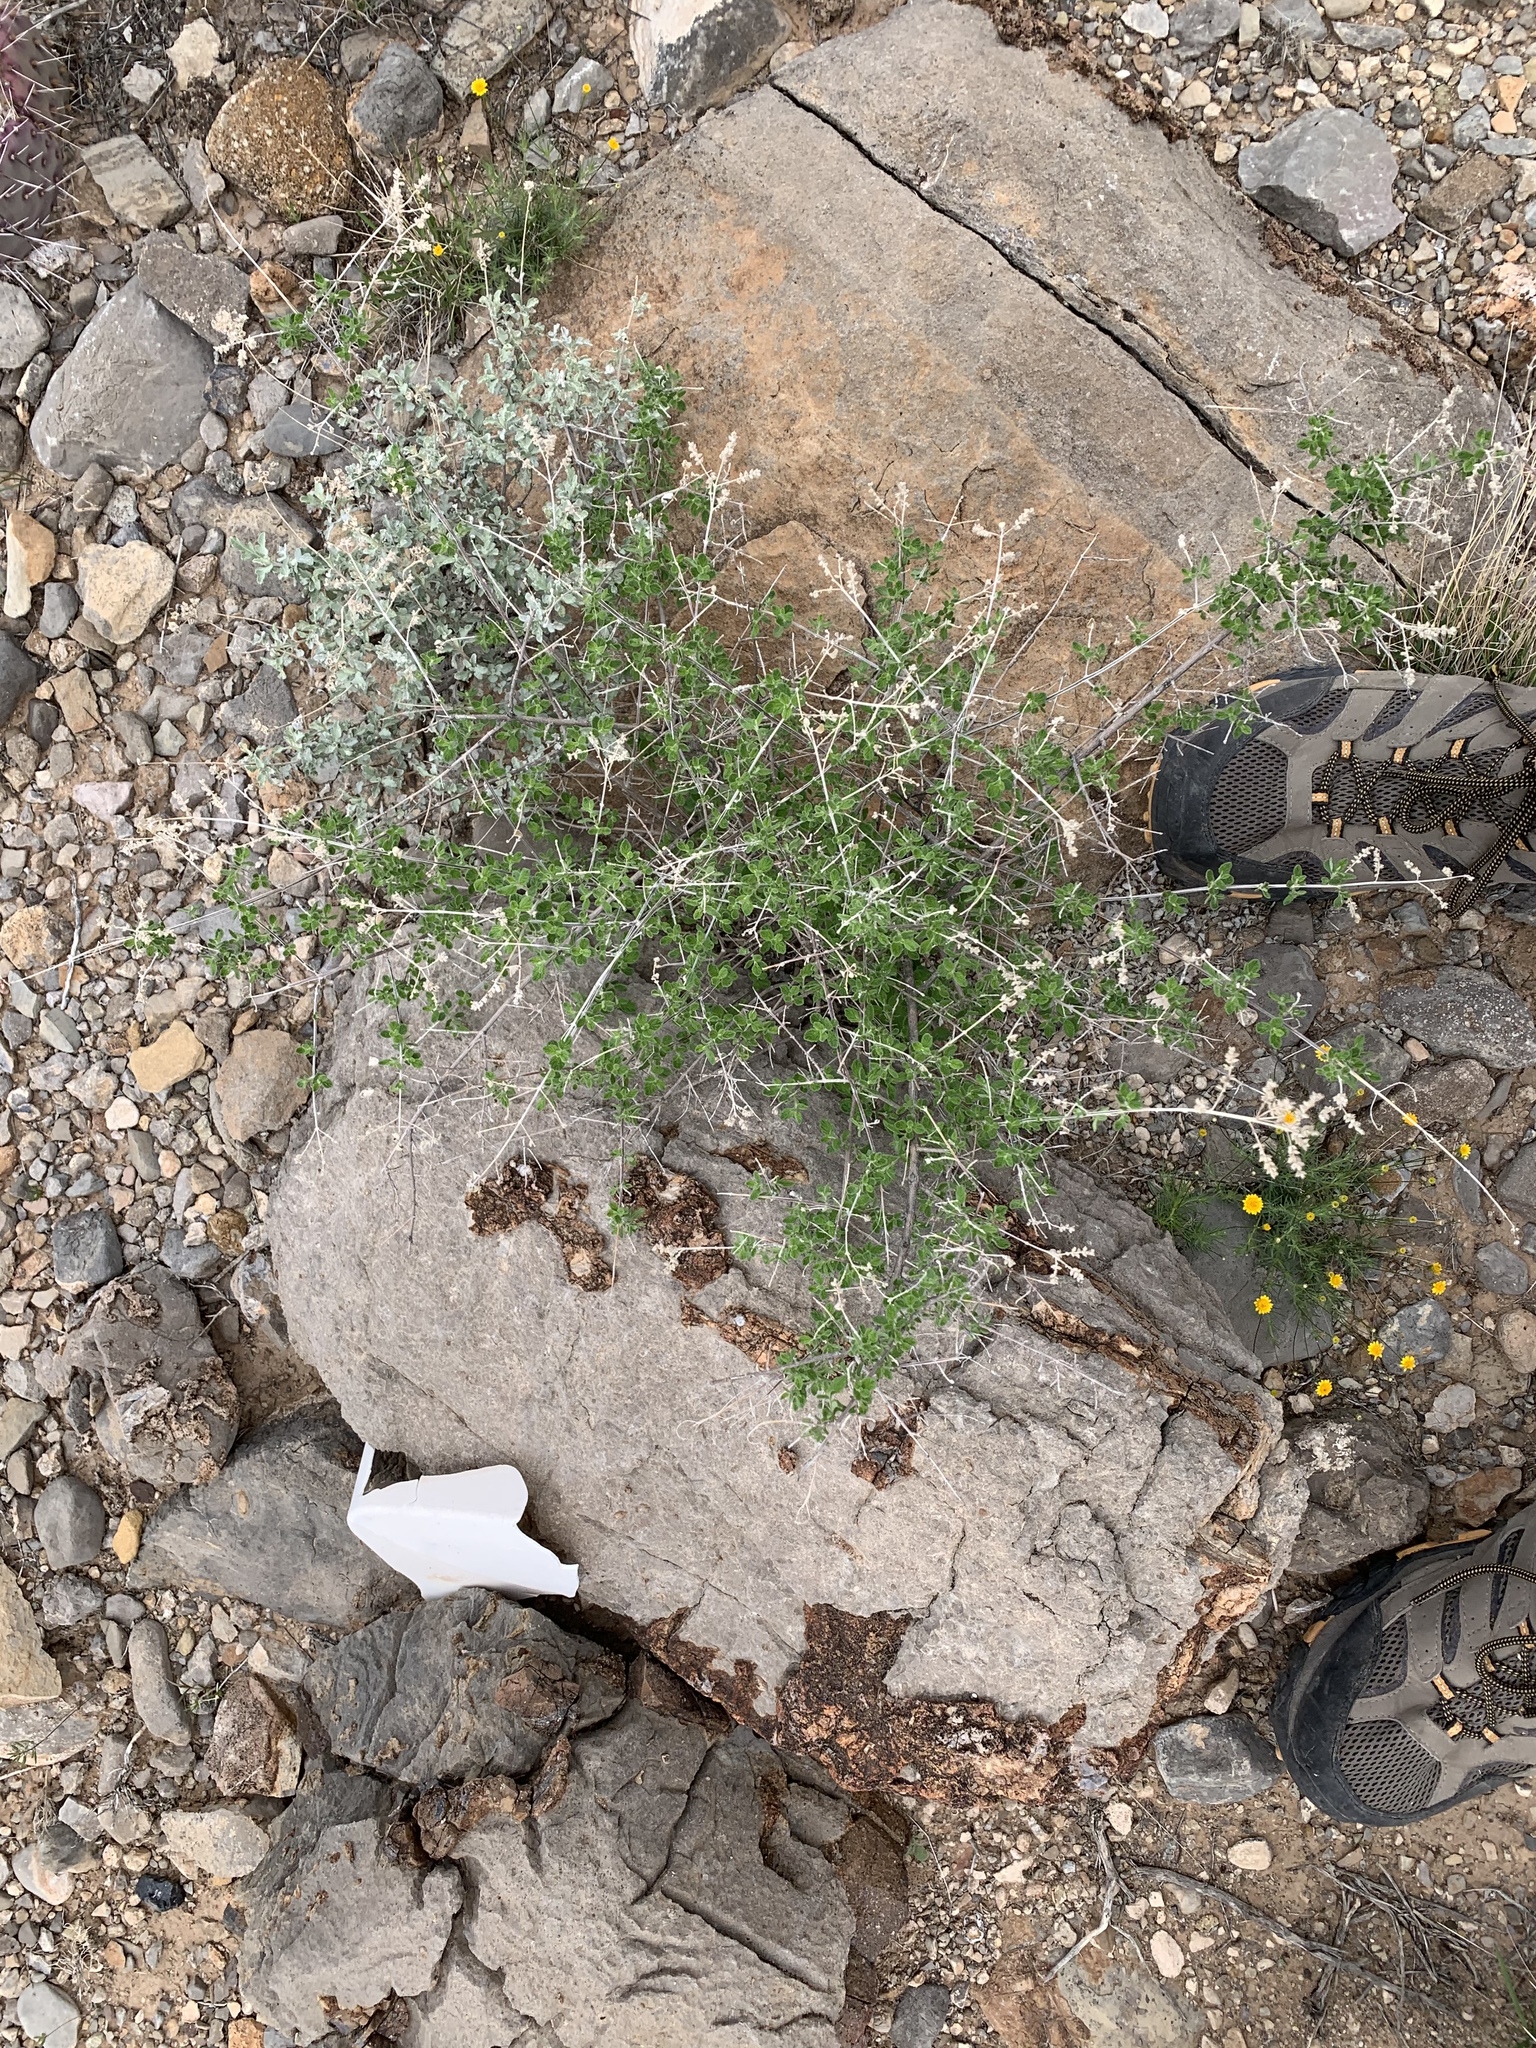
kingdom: Plantae
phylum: Tracheophyta
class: Magnoliopsida
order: Lamiales
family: Verbenaceae
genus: Aloysia
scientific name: Aloysia wrightii
